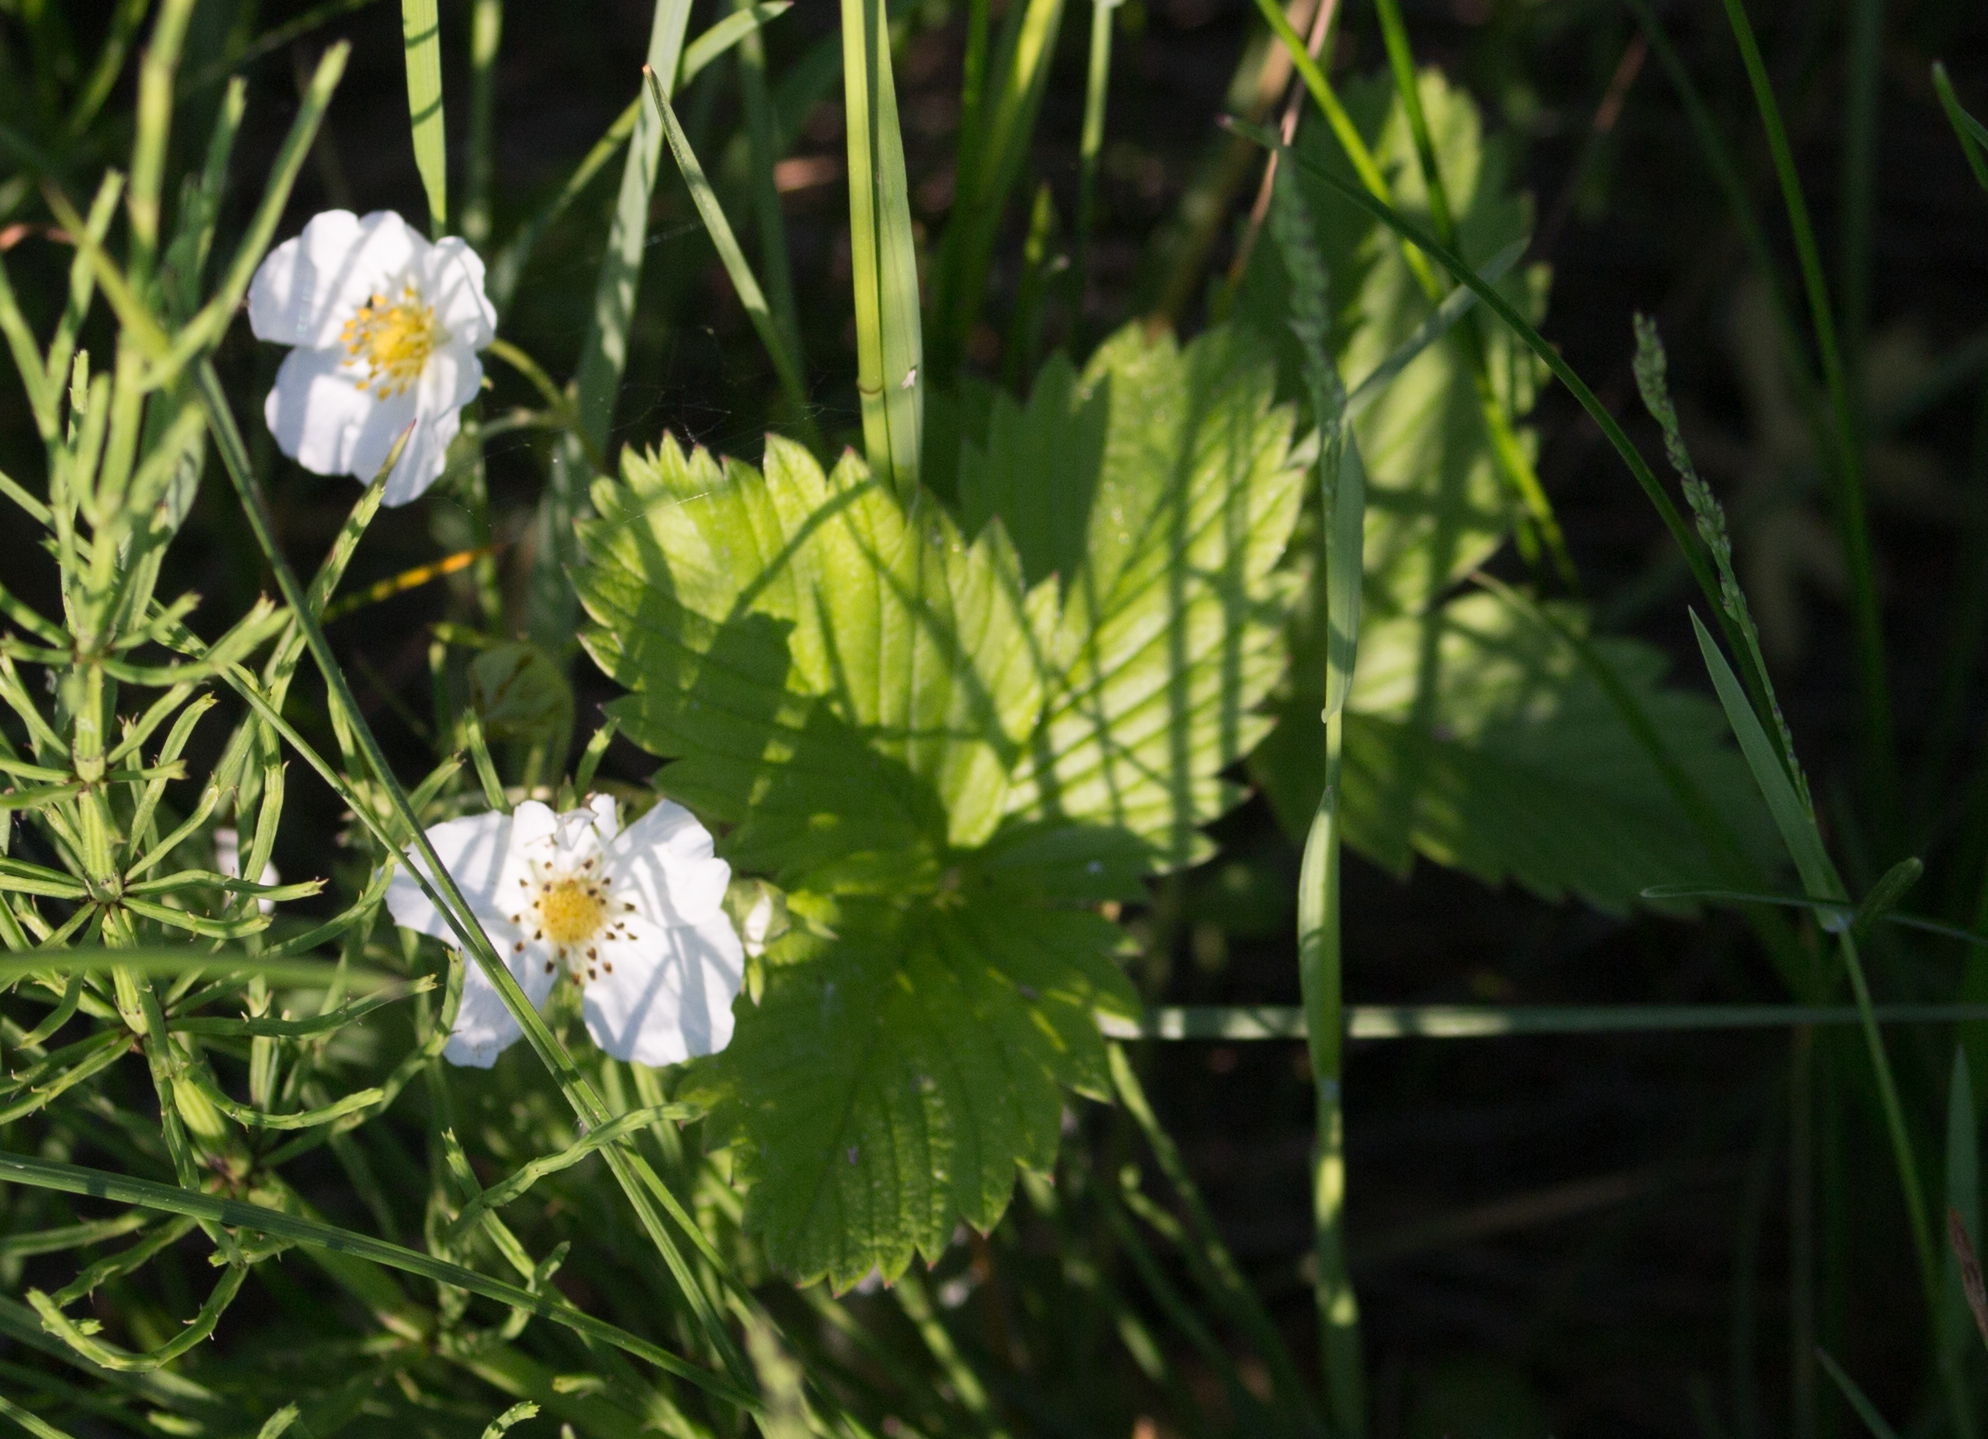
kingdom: Plantae
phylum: Tracheophyta
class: Magnoliopsida
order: Rosales
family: Rosaceae
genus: Fragaria
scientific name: Fragaria viridis
